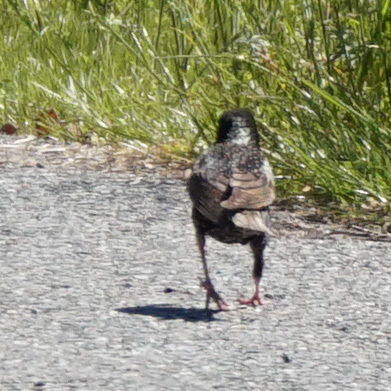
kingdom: Animalia
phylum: Chordata
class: Aves
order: Passeriformes
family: Sturnidae
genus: Sturnus
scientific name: Sturnus vulgaris
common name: Common starling
